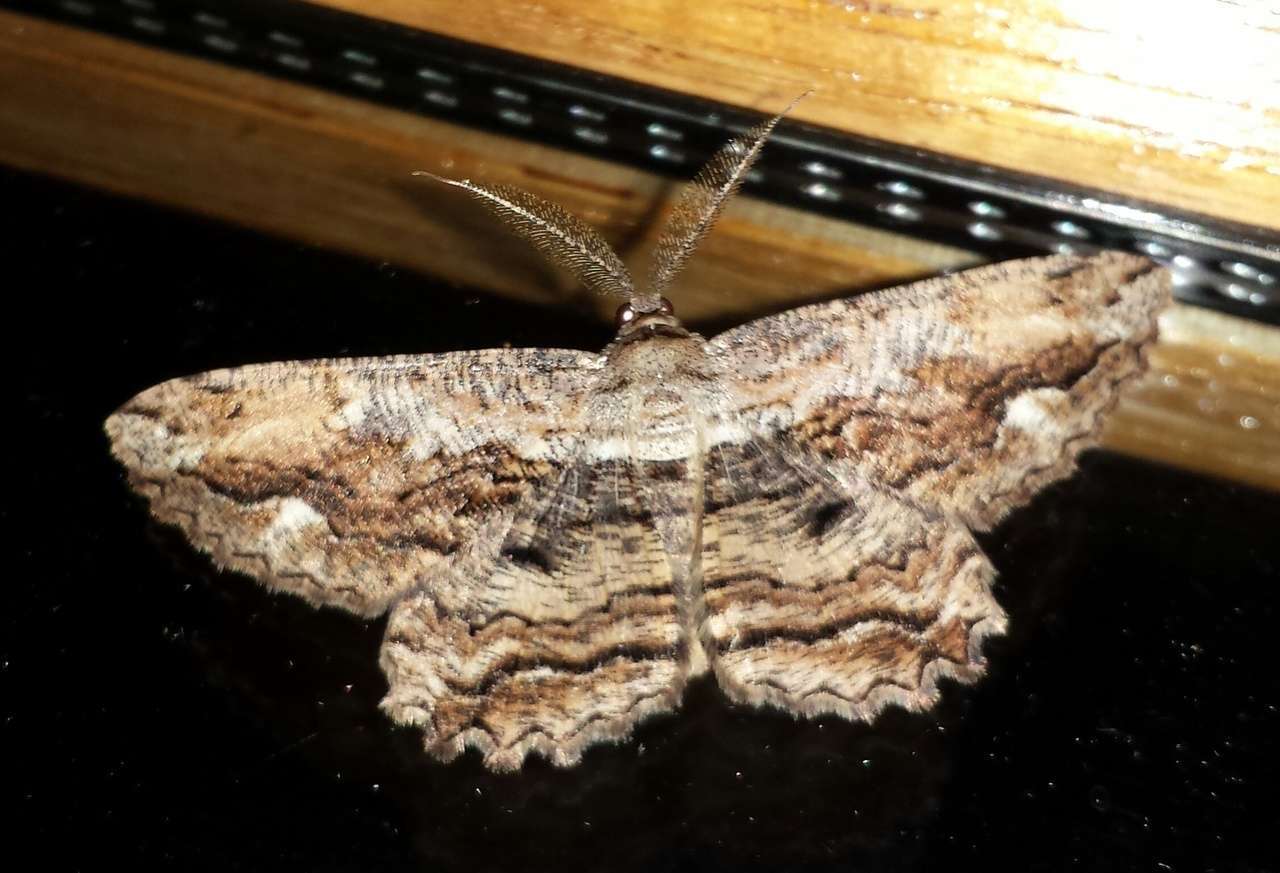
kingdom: Animalia
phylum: Arthropoda
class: Insecta
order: Lepidoptera
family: Geometridae
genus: Scioglyptis
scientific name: Scioglyptis lyciaria
